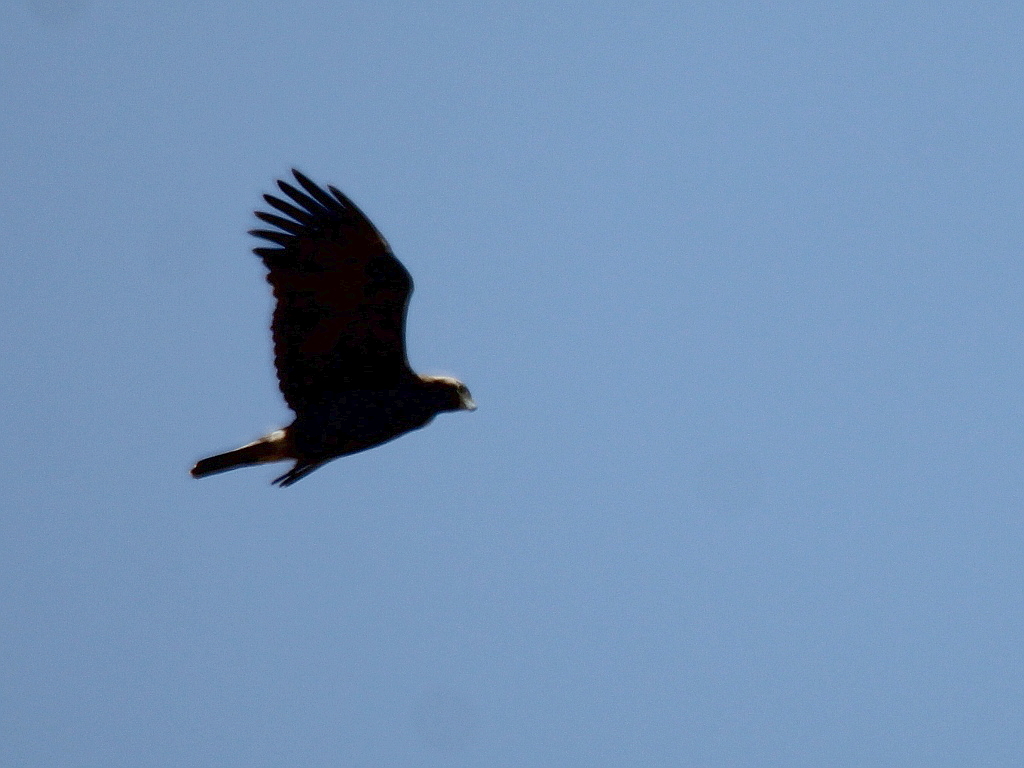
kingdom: Animalia
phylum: Chordata
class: Aves
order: Accipitriformes
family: Accipitridae
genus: Aquila
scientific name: Aquila heliaca
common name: Eastern imperial eagle
